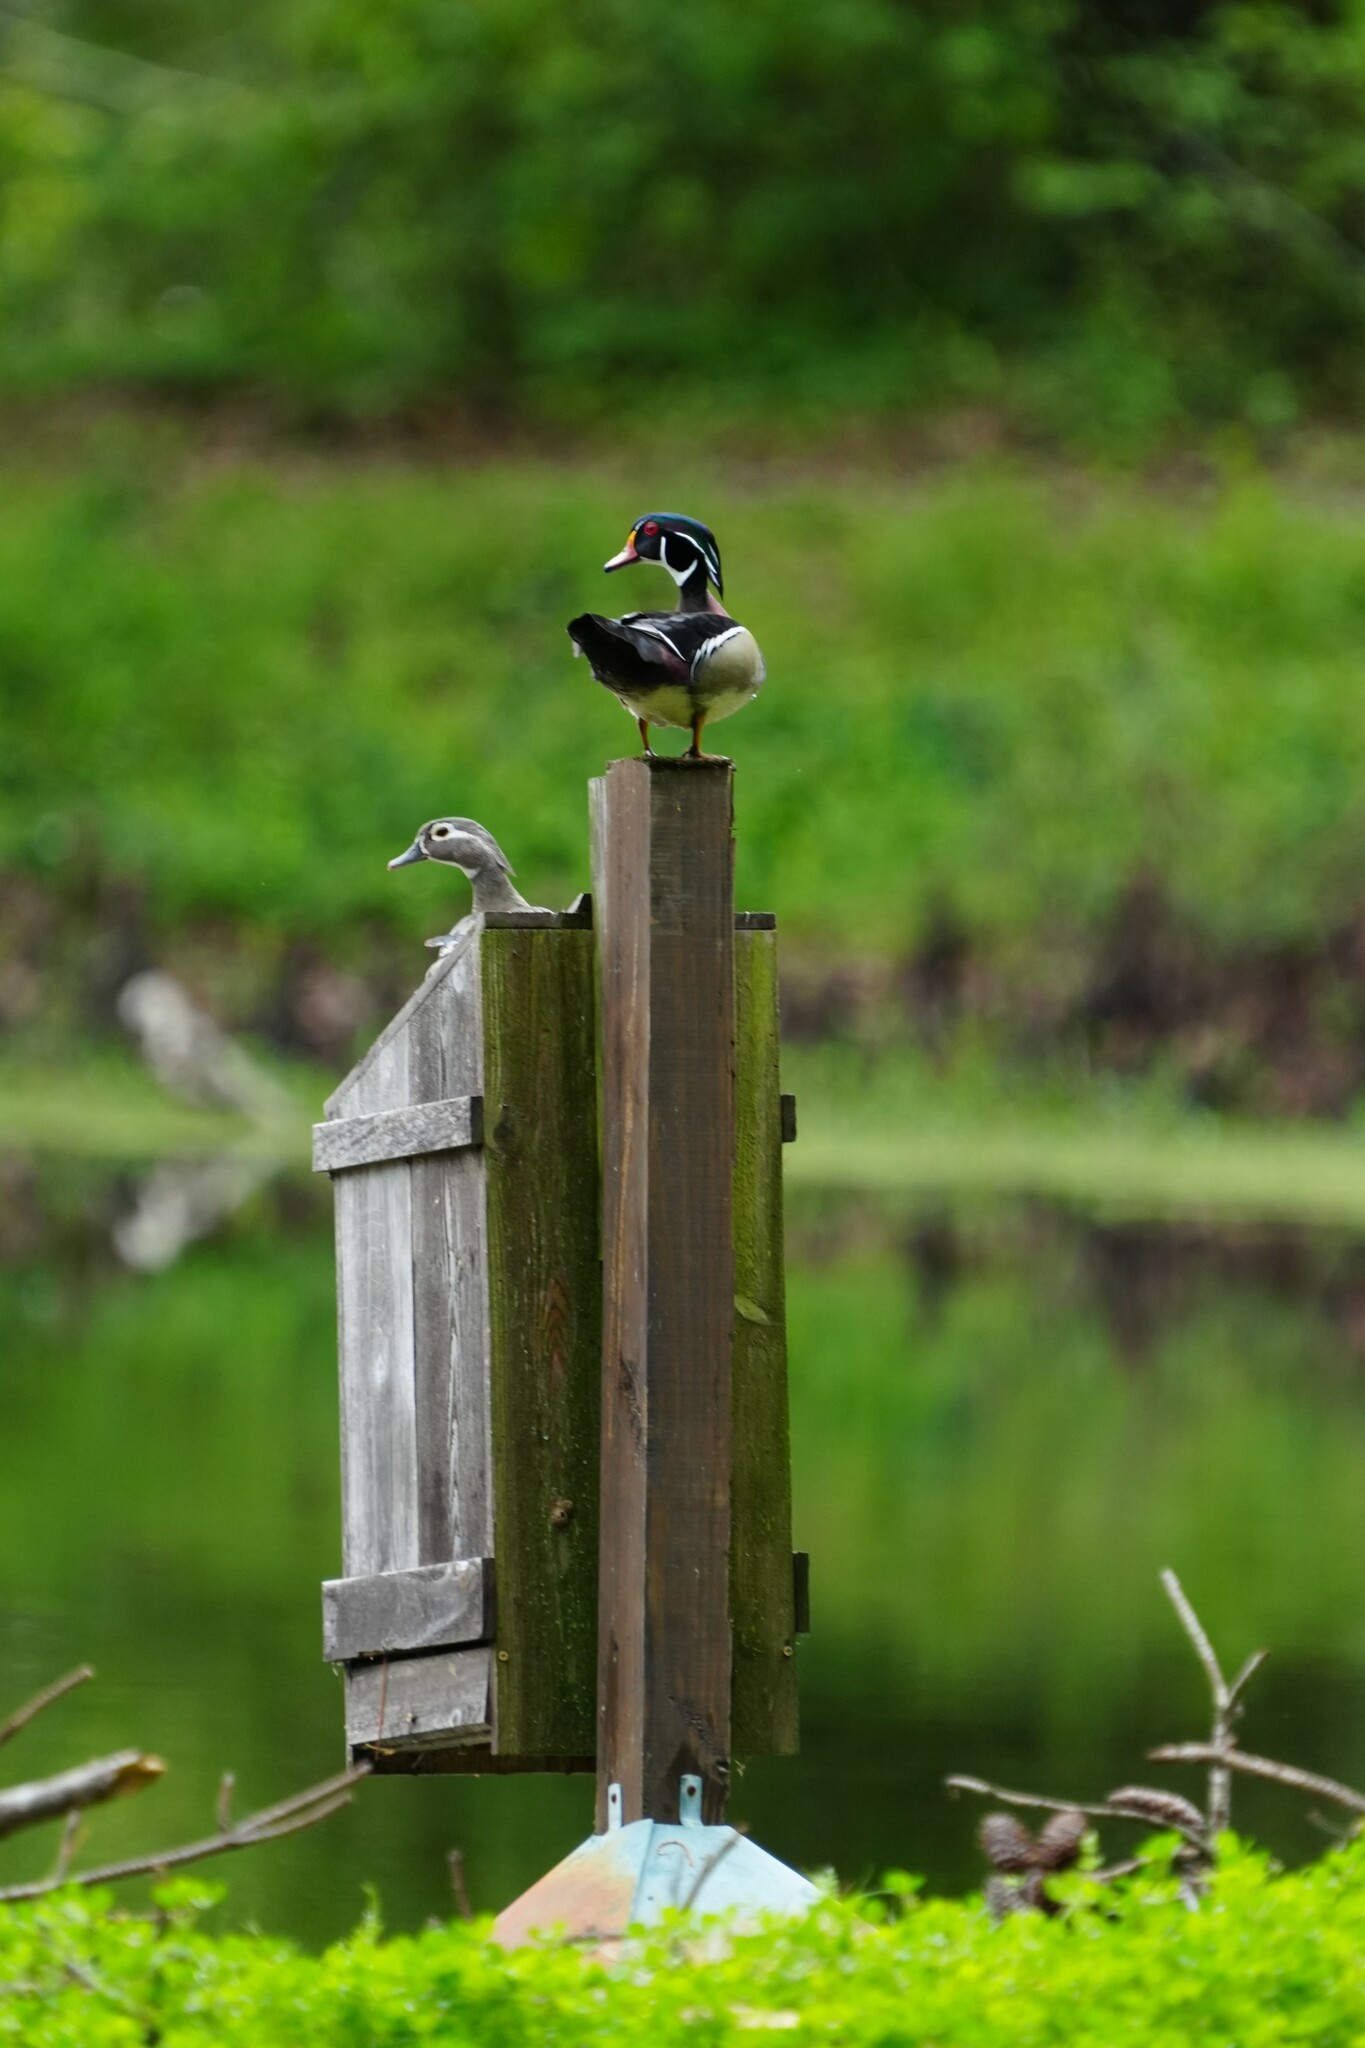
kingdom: Animalia
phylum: Chordata
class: Aves
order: Anseriformes
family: Anatidae
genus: Aix
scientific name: Aix sponsa
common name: Wood duck
